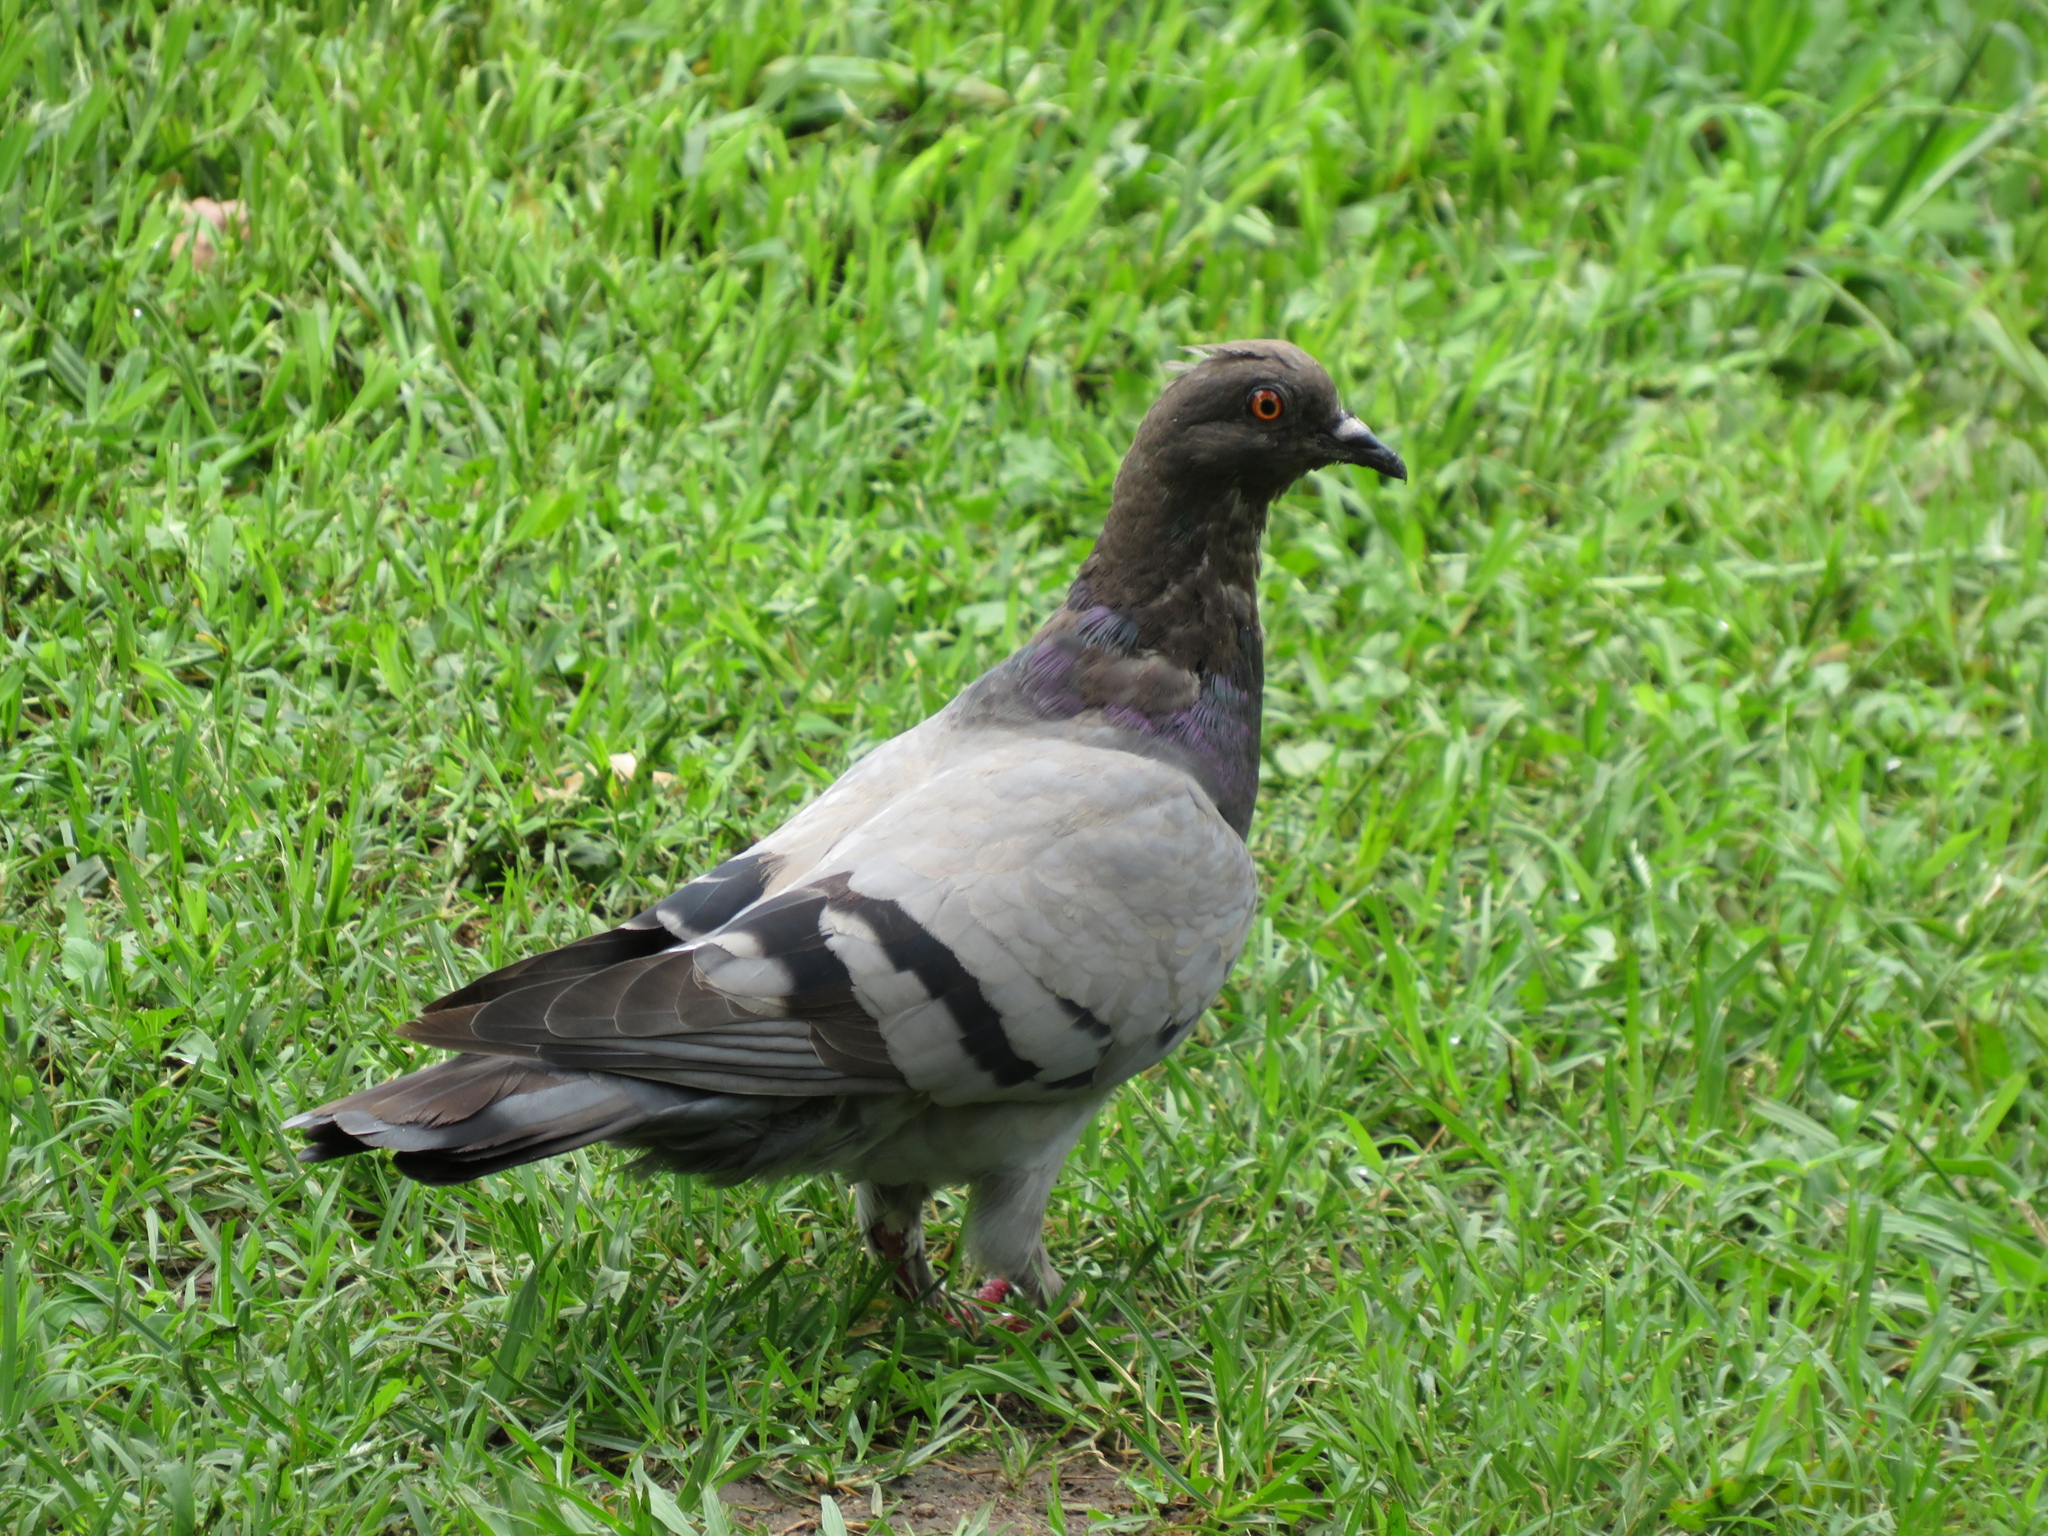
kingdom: Animalia
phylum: Chordata
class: Aves
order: Columbiformes
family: Columbidae
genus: Columba
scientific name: Columba livia
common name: Rock pigeon
